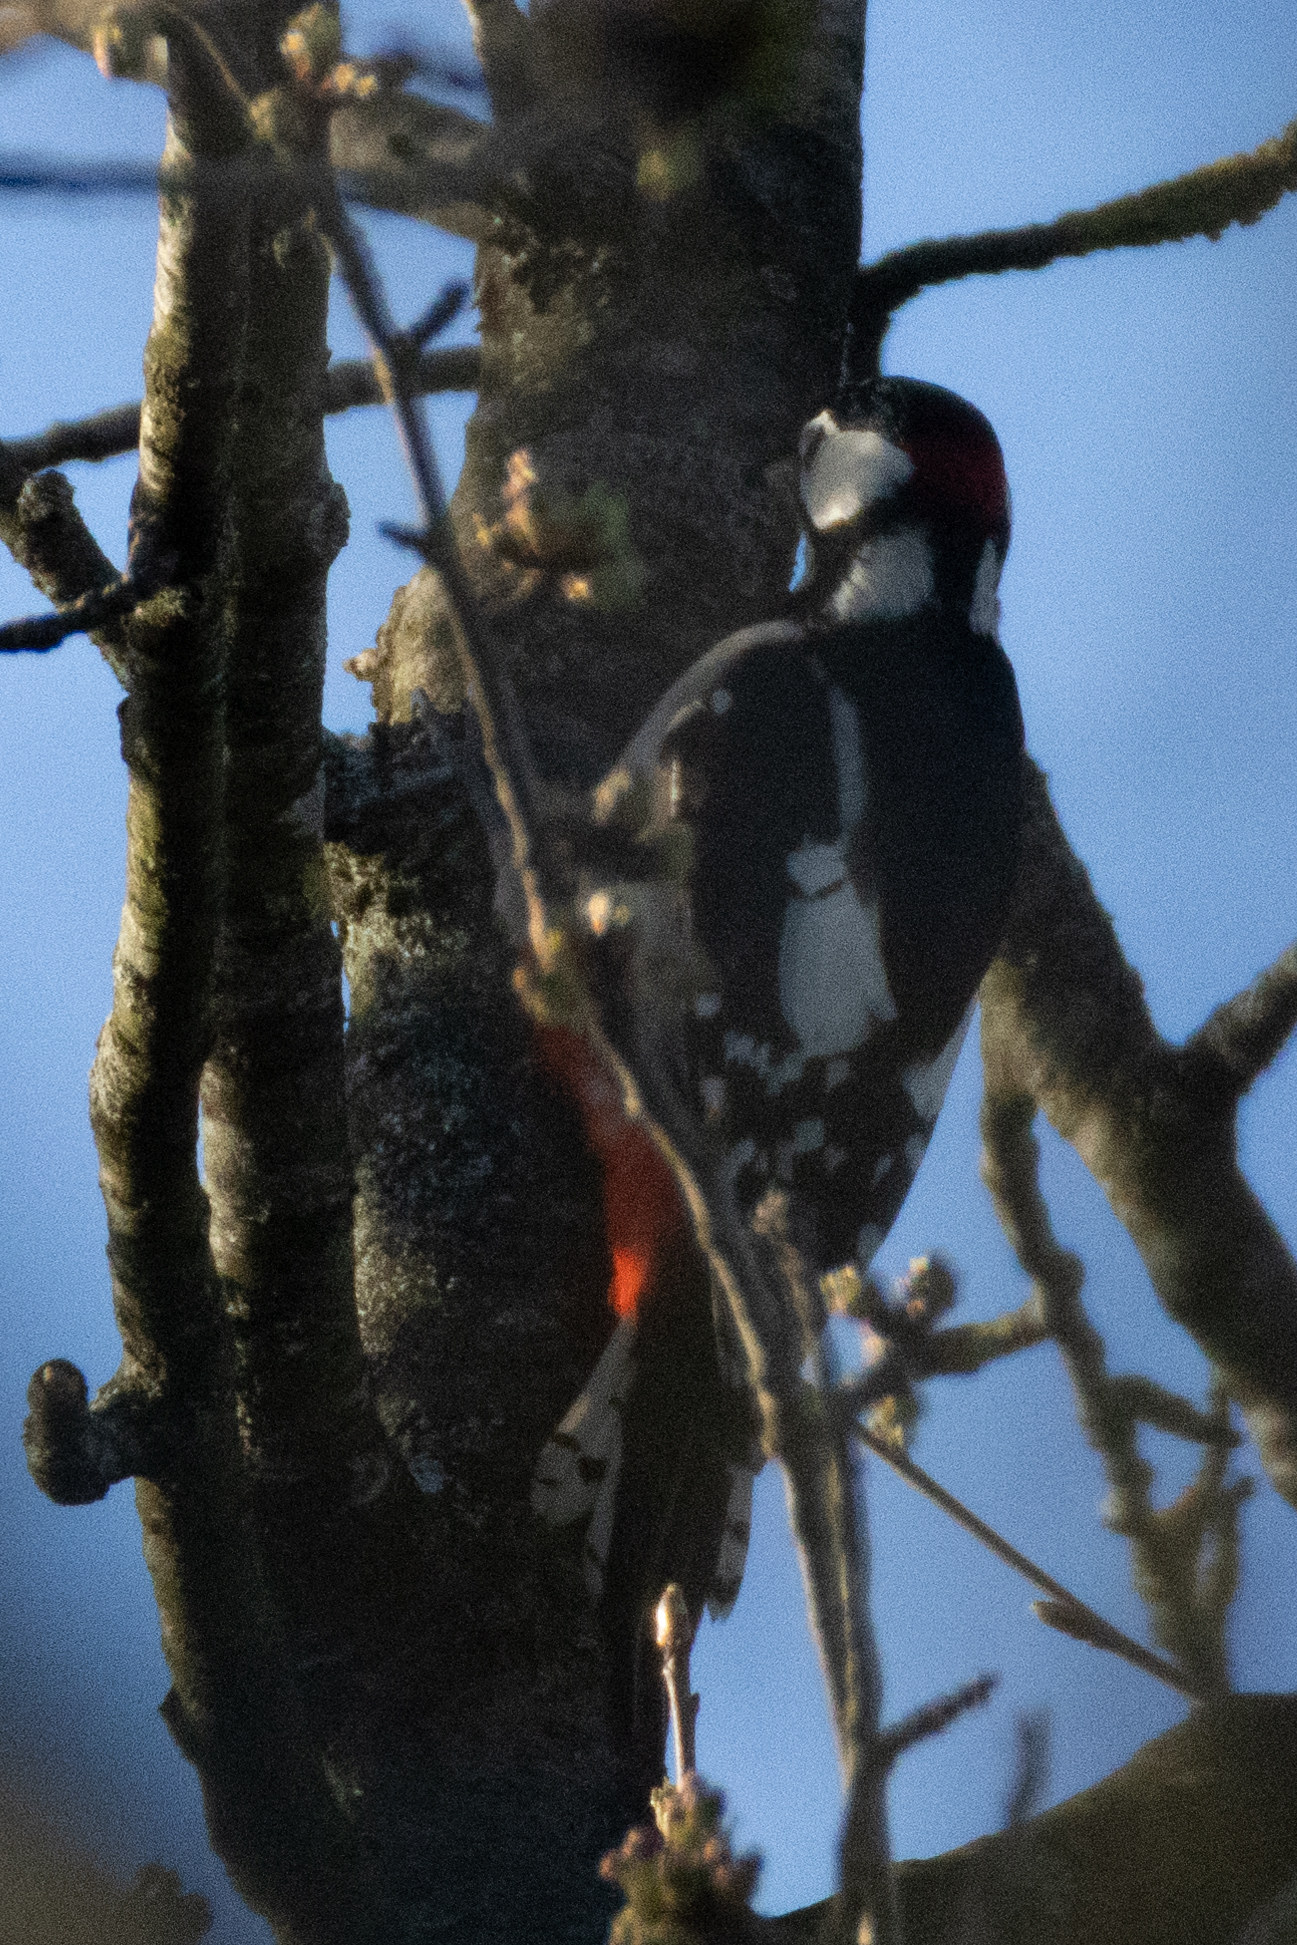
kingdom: Animalia
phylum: Chordata
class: Aves
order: Piciformes
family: Picidae
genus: Dendrocopos
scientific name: Dendrocopos major
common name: Great spotted woodpecker
